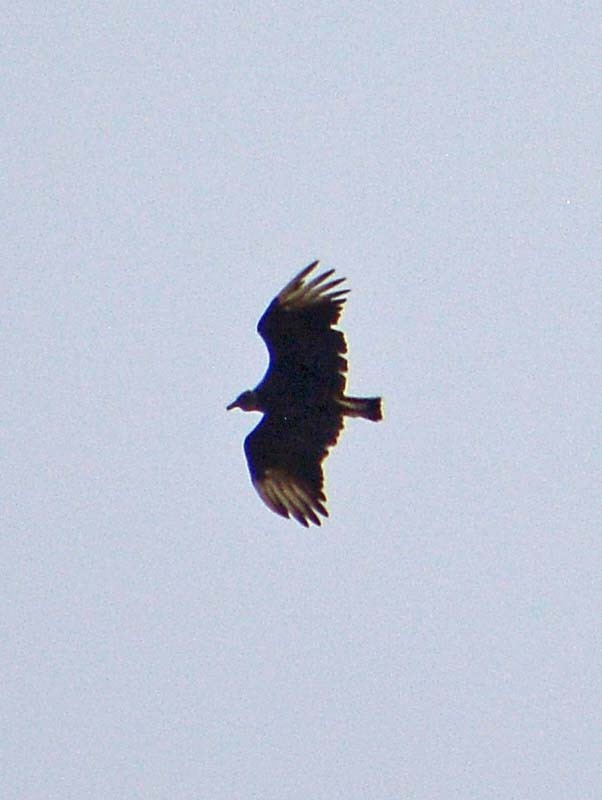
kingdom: Animalia
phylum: Chordata
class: Aves
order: Accipitriformes
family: Cathartidae
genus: Coragyps
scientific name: Coragyps atratus
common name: Black vulture
